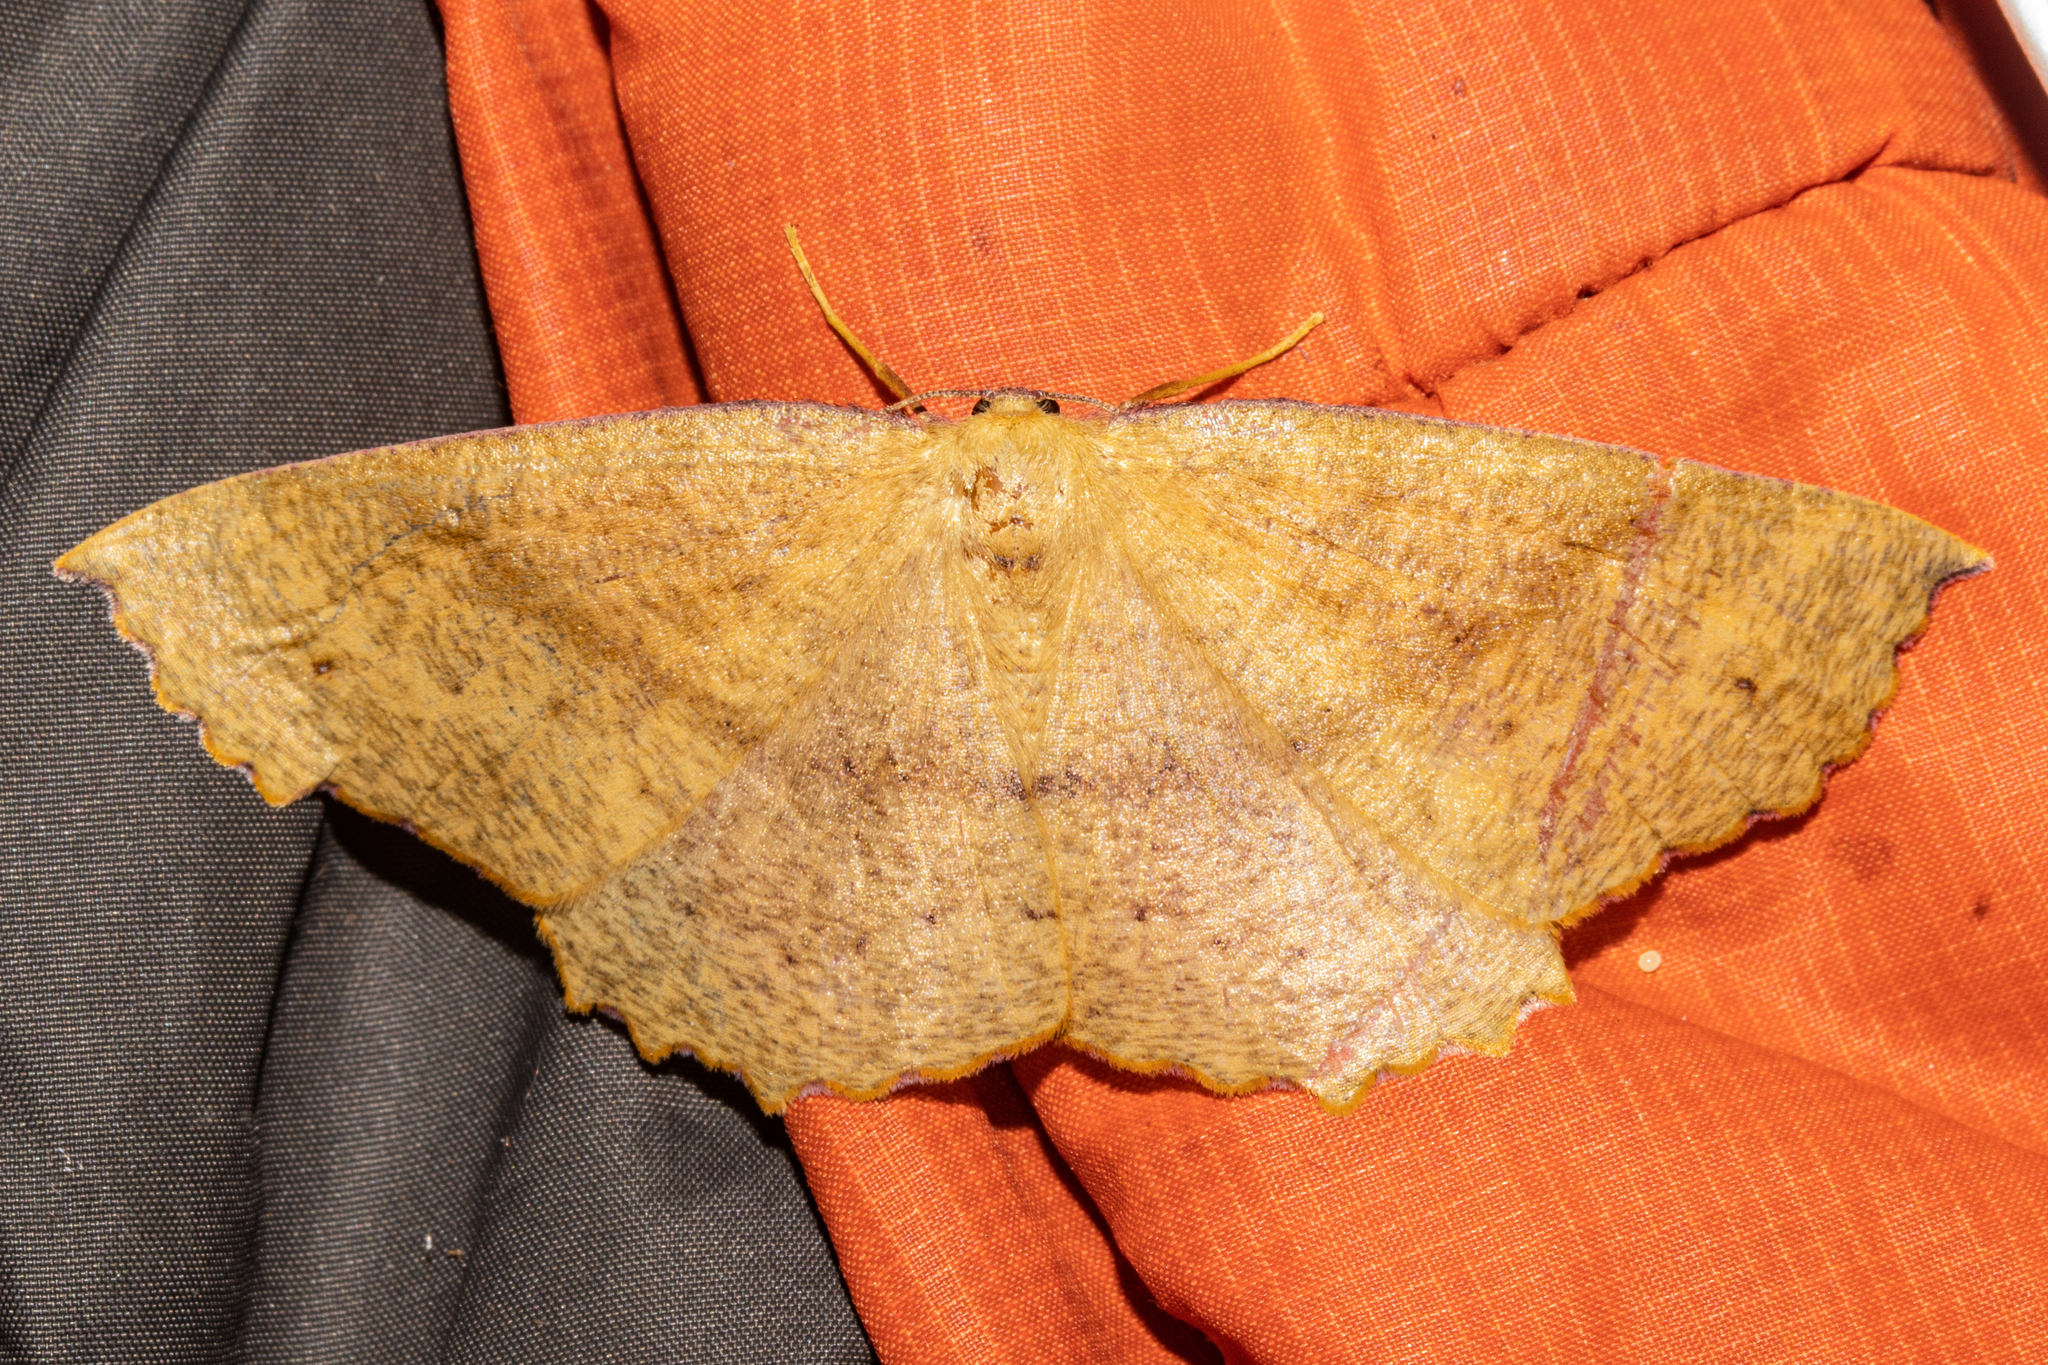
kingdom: Animalia
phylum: Arthropoda
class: Insecta
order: Lepidoptera
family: Geometridae
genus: Xyridacma
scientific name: Xyridacma ustaria
